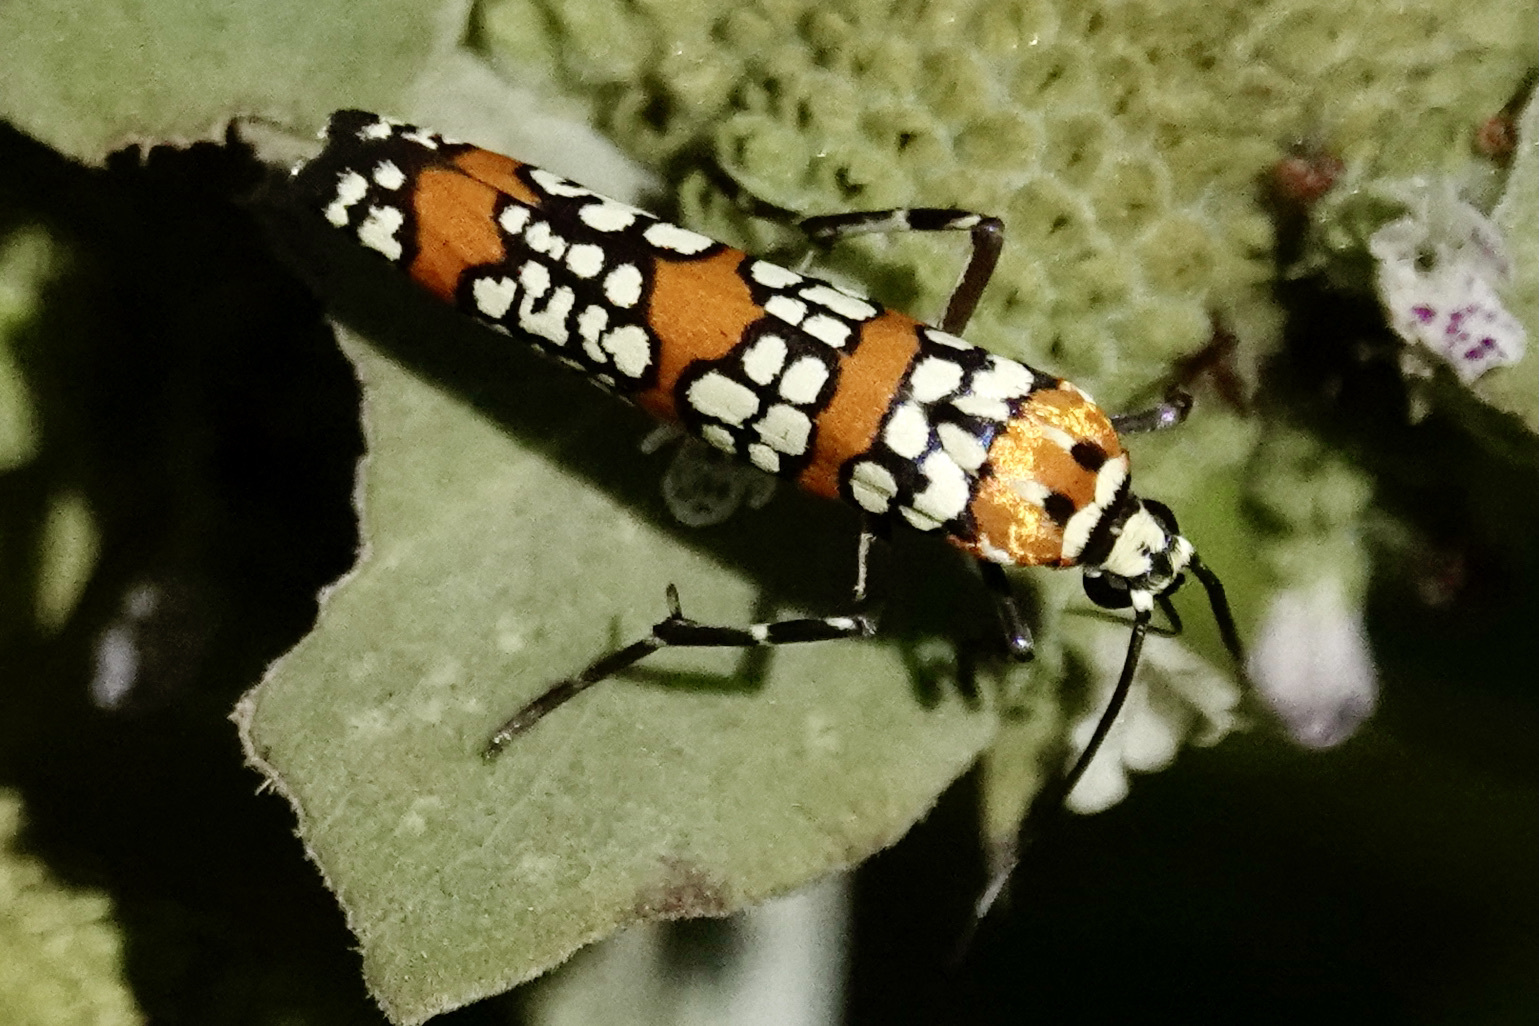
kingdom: Animalia
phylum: Arthropoda
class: Insecta
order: Lepidoptera
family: Attevidae
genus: Atteva
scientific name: Atteva punctella
